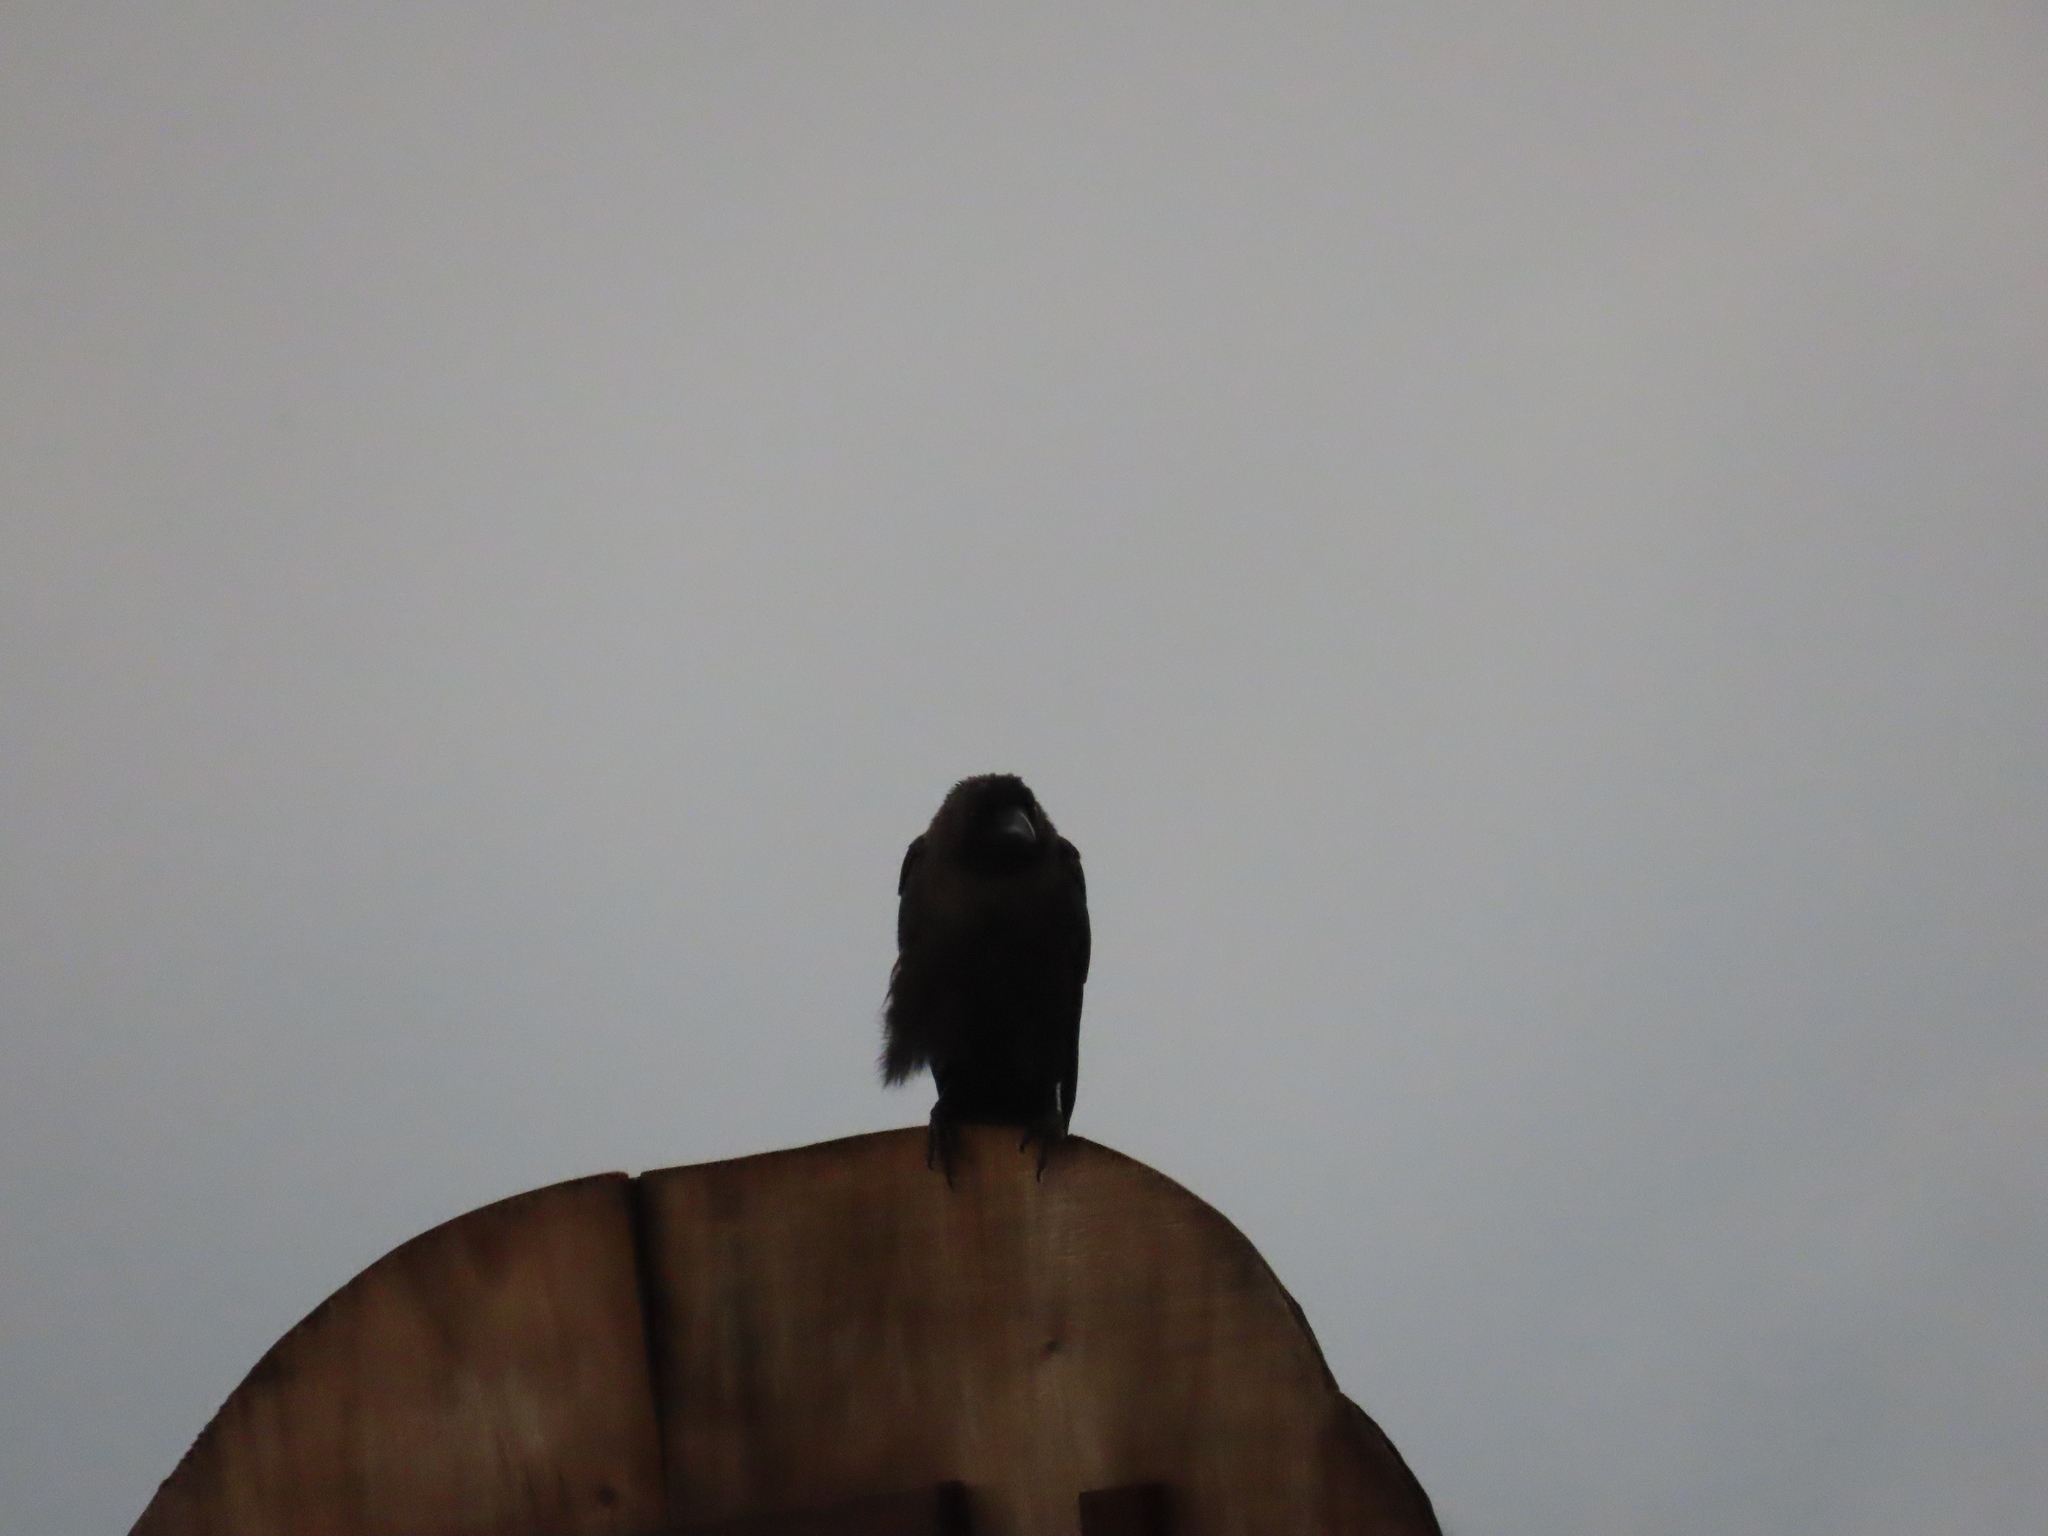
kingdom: Animalia
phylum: Chordata
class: Aves
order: Passeriformes
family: Corvidae
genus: Corvus
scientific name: Corvus splendens
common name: House crow
